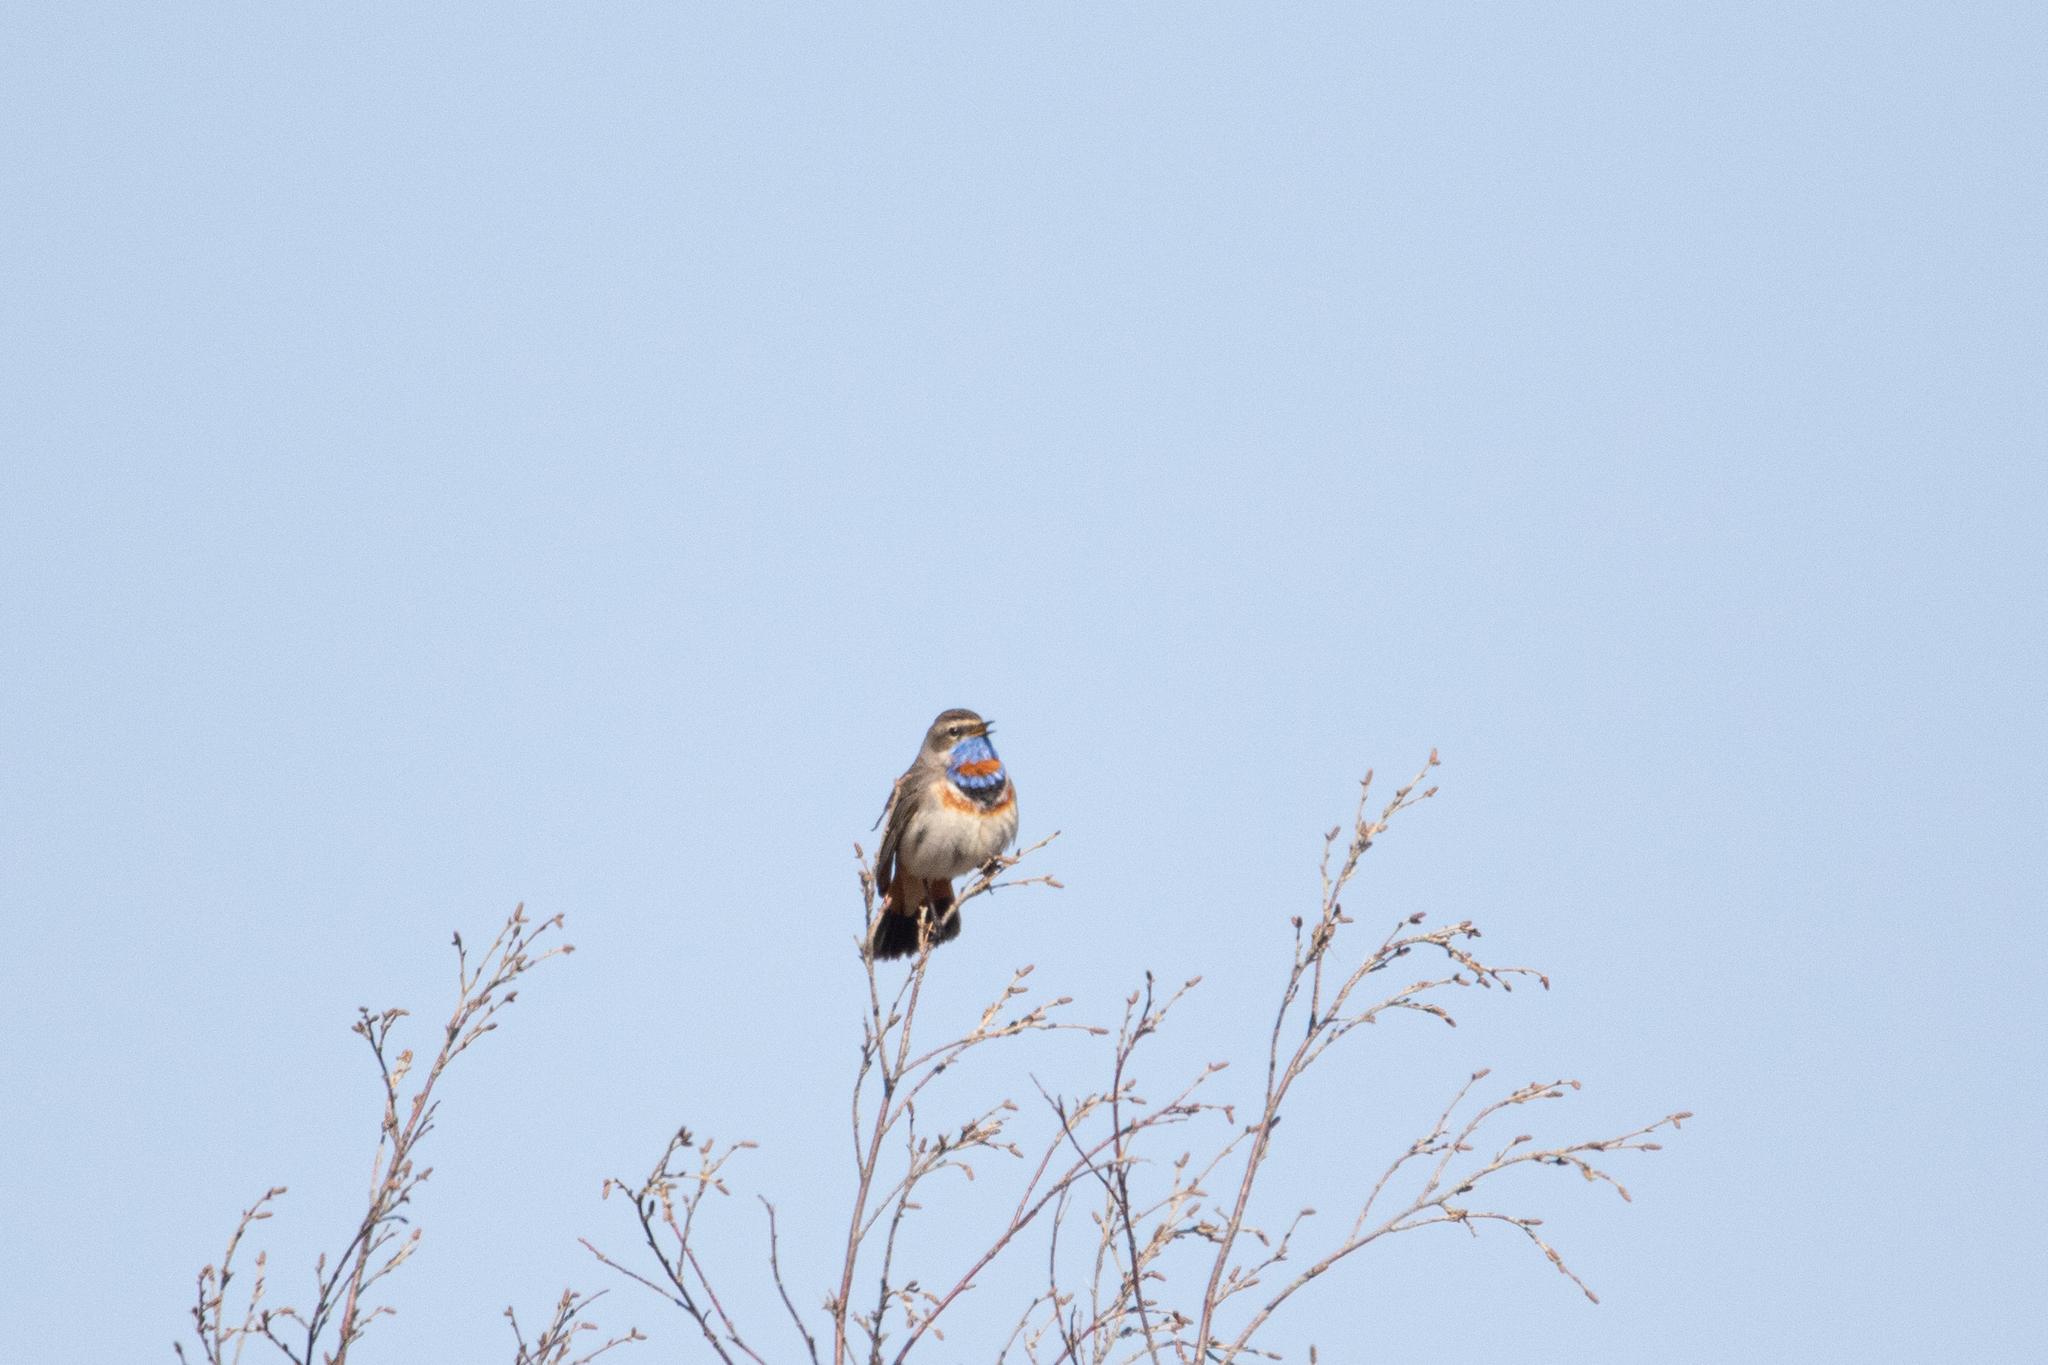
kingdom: Animalia
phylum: Chordata
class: Aves
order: Passeriformes
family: Muscicapidae
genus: Luscinia
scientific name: Luscinia svecica
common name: Bluethroat
